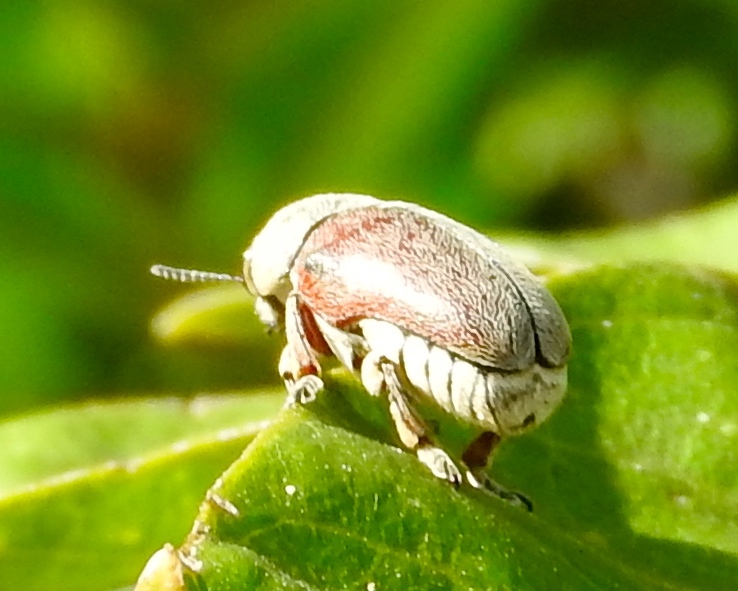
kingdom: Animalia
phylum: Arthropoda
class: Insecta
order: Coleoptera
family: Chrysomelidae
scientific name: Chrysomelidae
